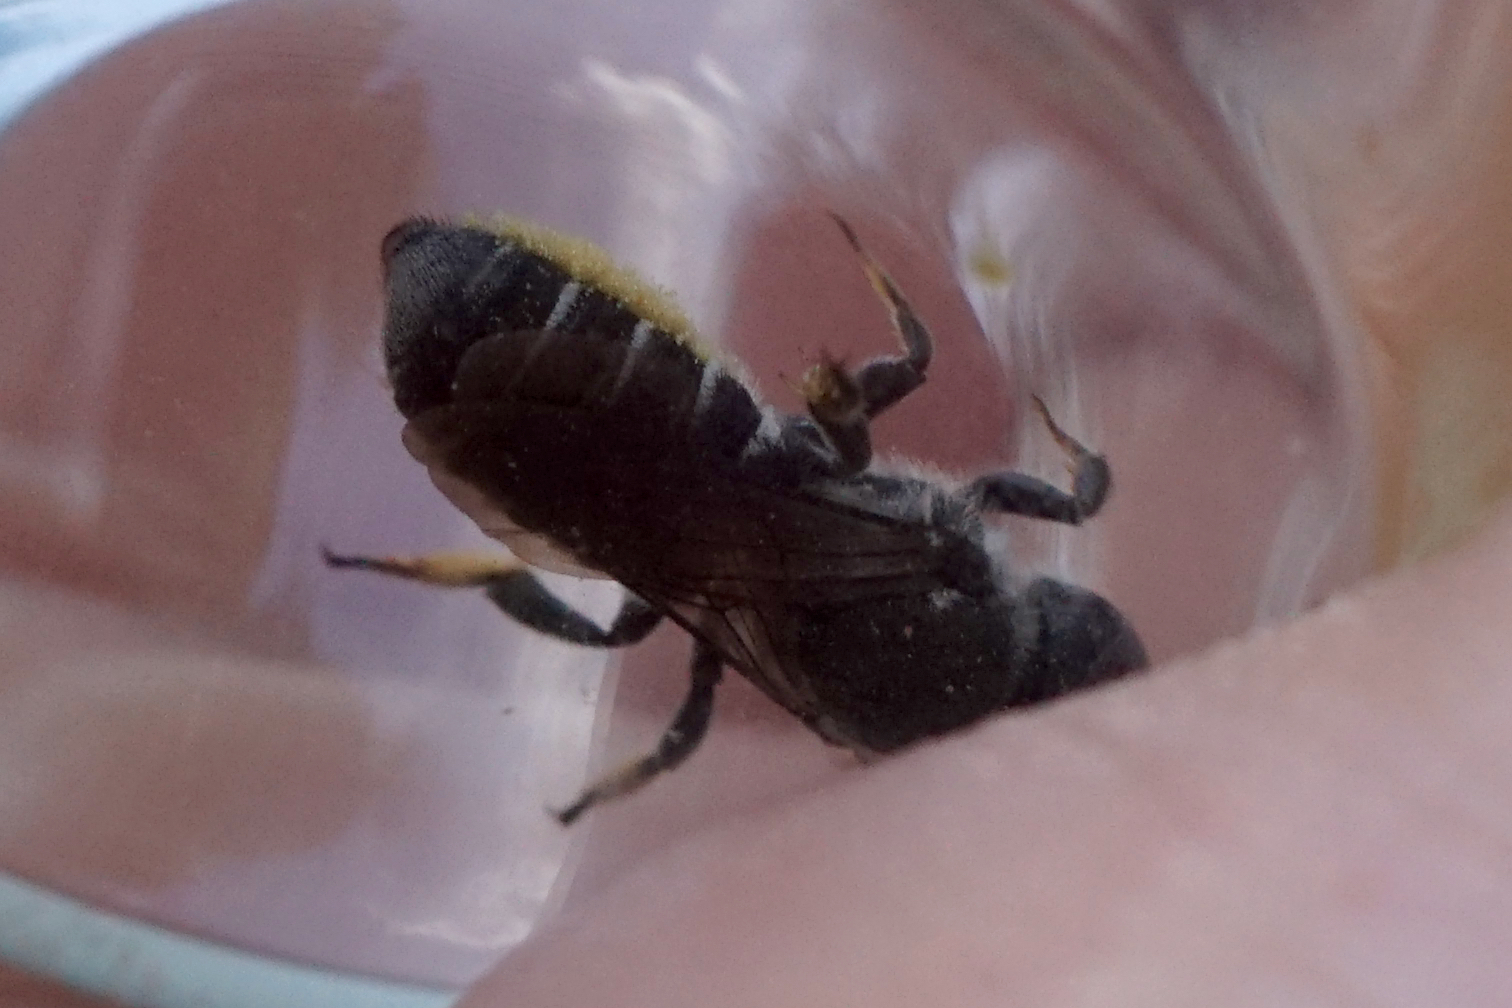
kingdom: Animalia
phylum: Arthropoda
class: Insecta
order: Hymenoptera
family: Megachilidae
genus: Megachile
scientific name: Megachile campanulae
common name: Bellflower resin bee
